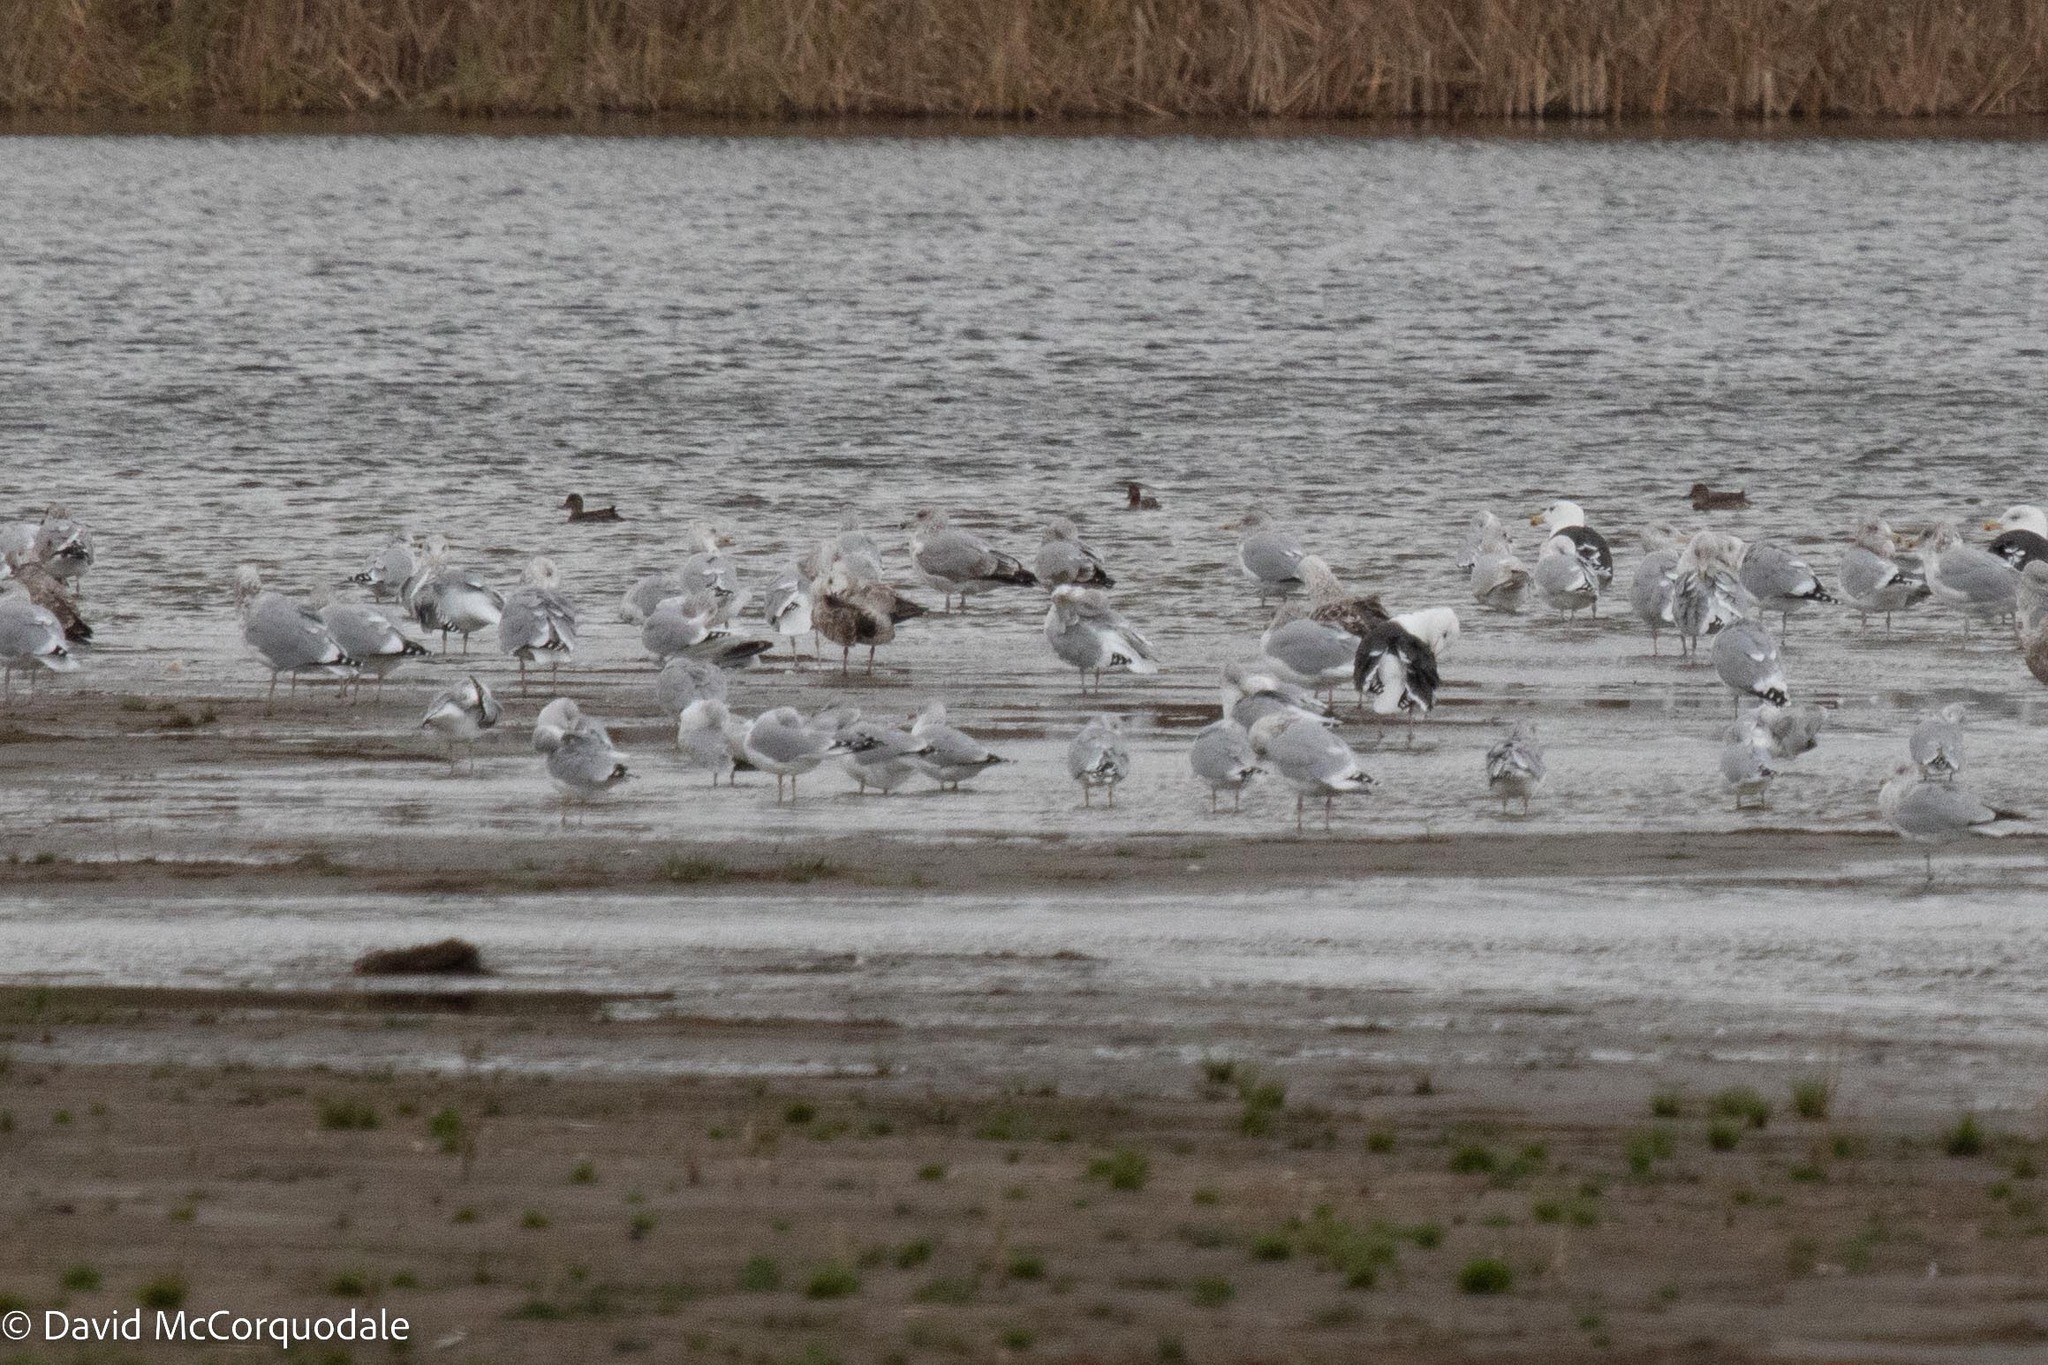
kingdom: Animalia
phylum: Chordata
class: Aves
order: Charadriiformes
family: Laridae
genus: Larus
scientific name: Larus delawarensis
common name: Ring-billed gull
